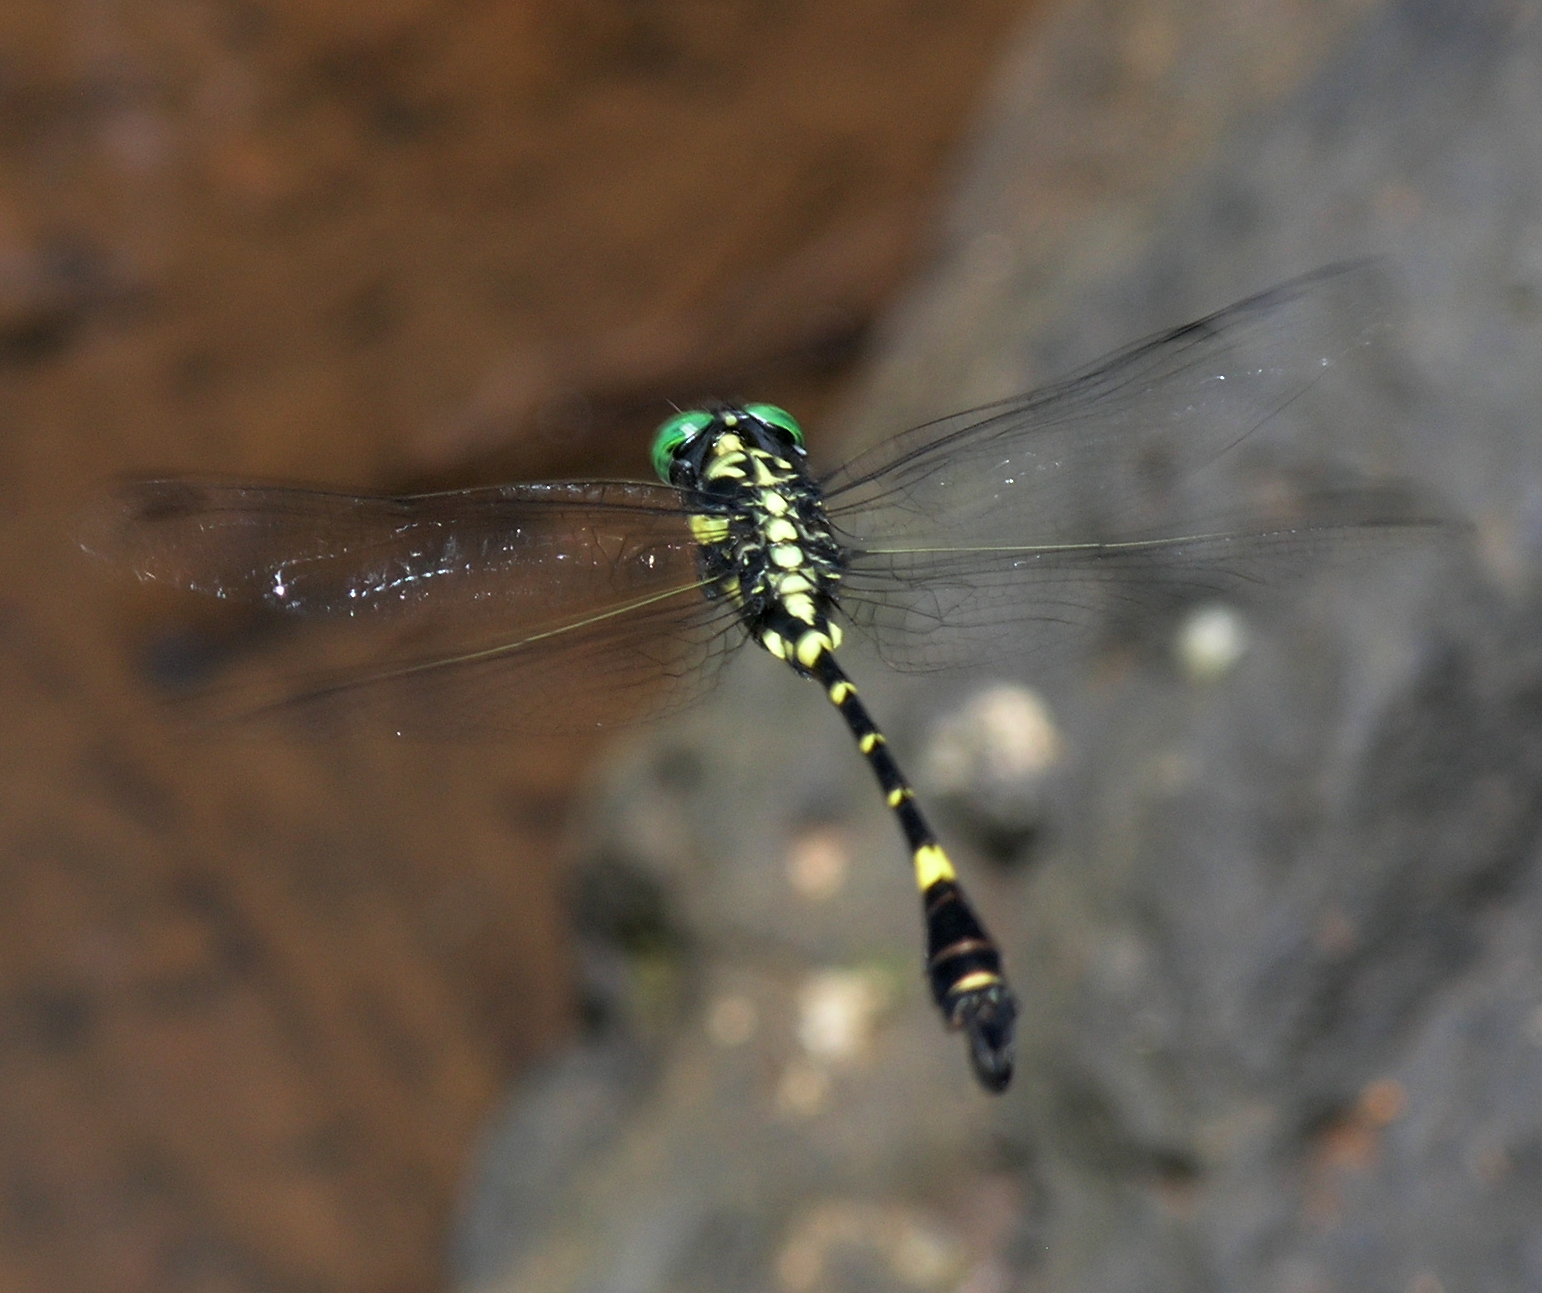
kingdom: Animalia
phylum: Arthropoda
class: Insecta
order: Odonata
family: Gomphidae
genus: Lamelligomphus
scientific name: Lamelligomphus castor
